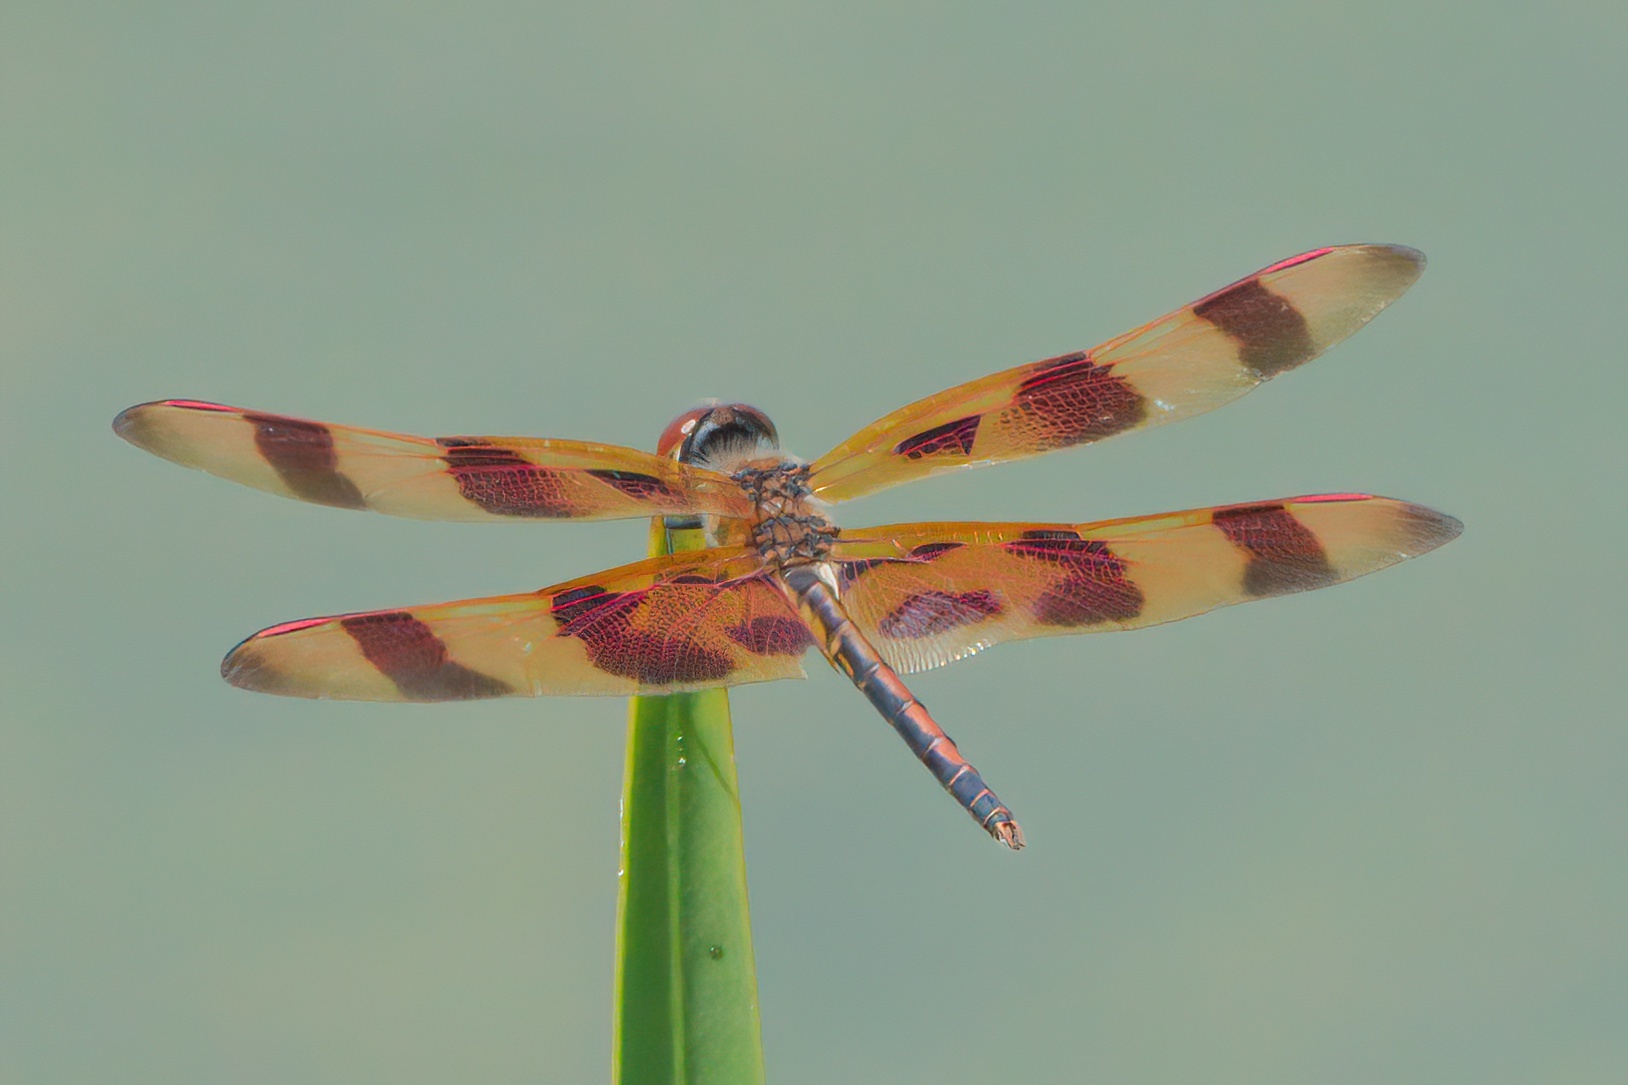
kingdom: Animalia
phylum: Arthropoda
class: Insecta
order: Odonata
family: Libellulidae
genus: Celithemis
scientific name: Celithemis eponina
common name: Halloween pennant
